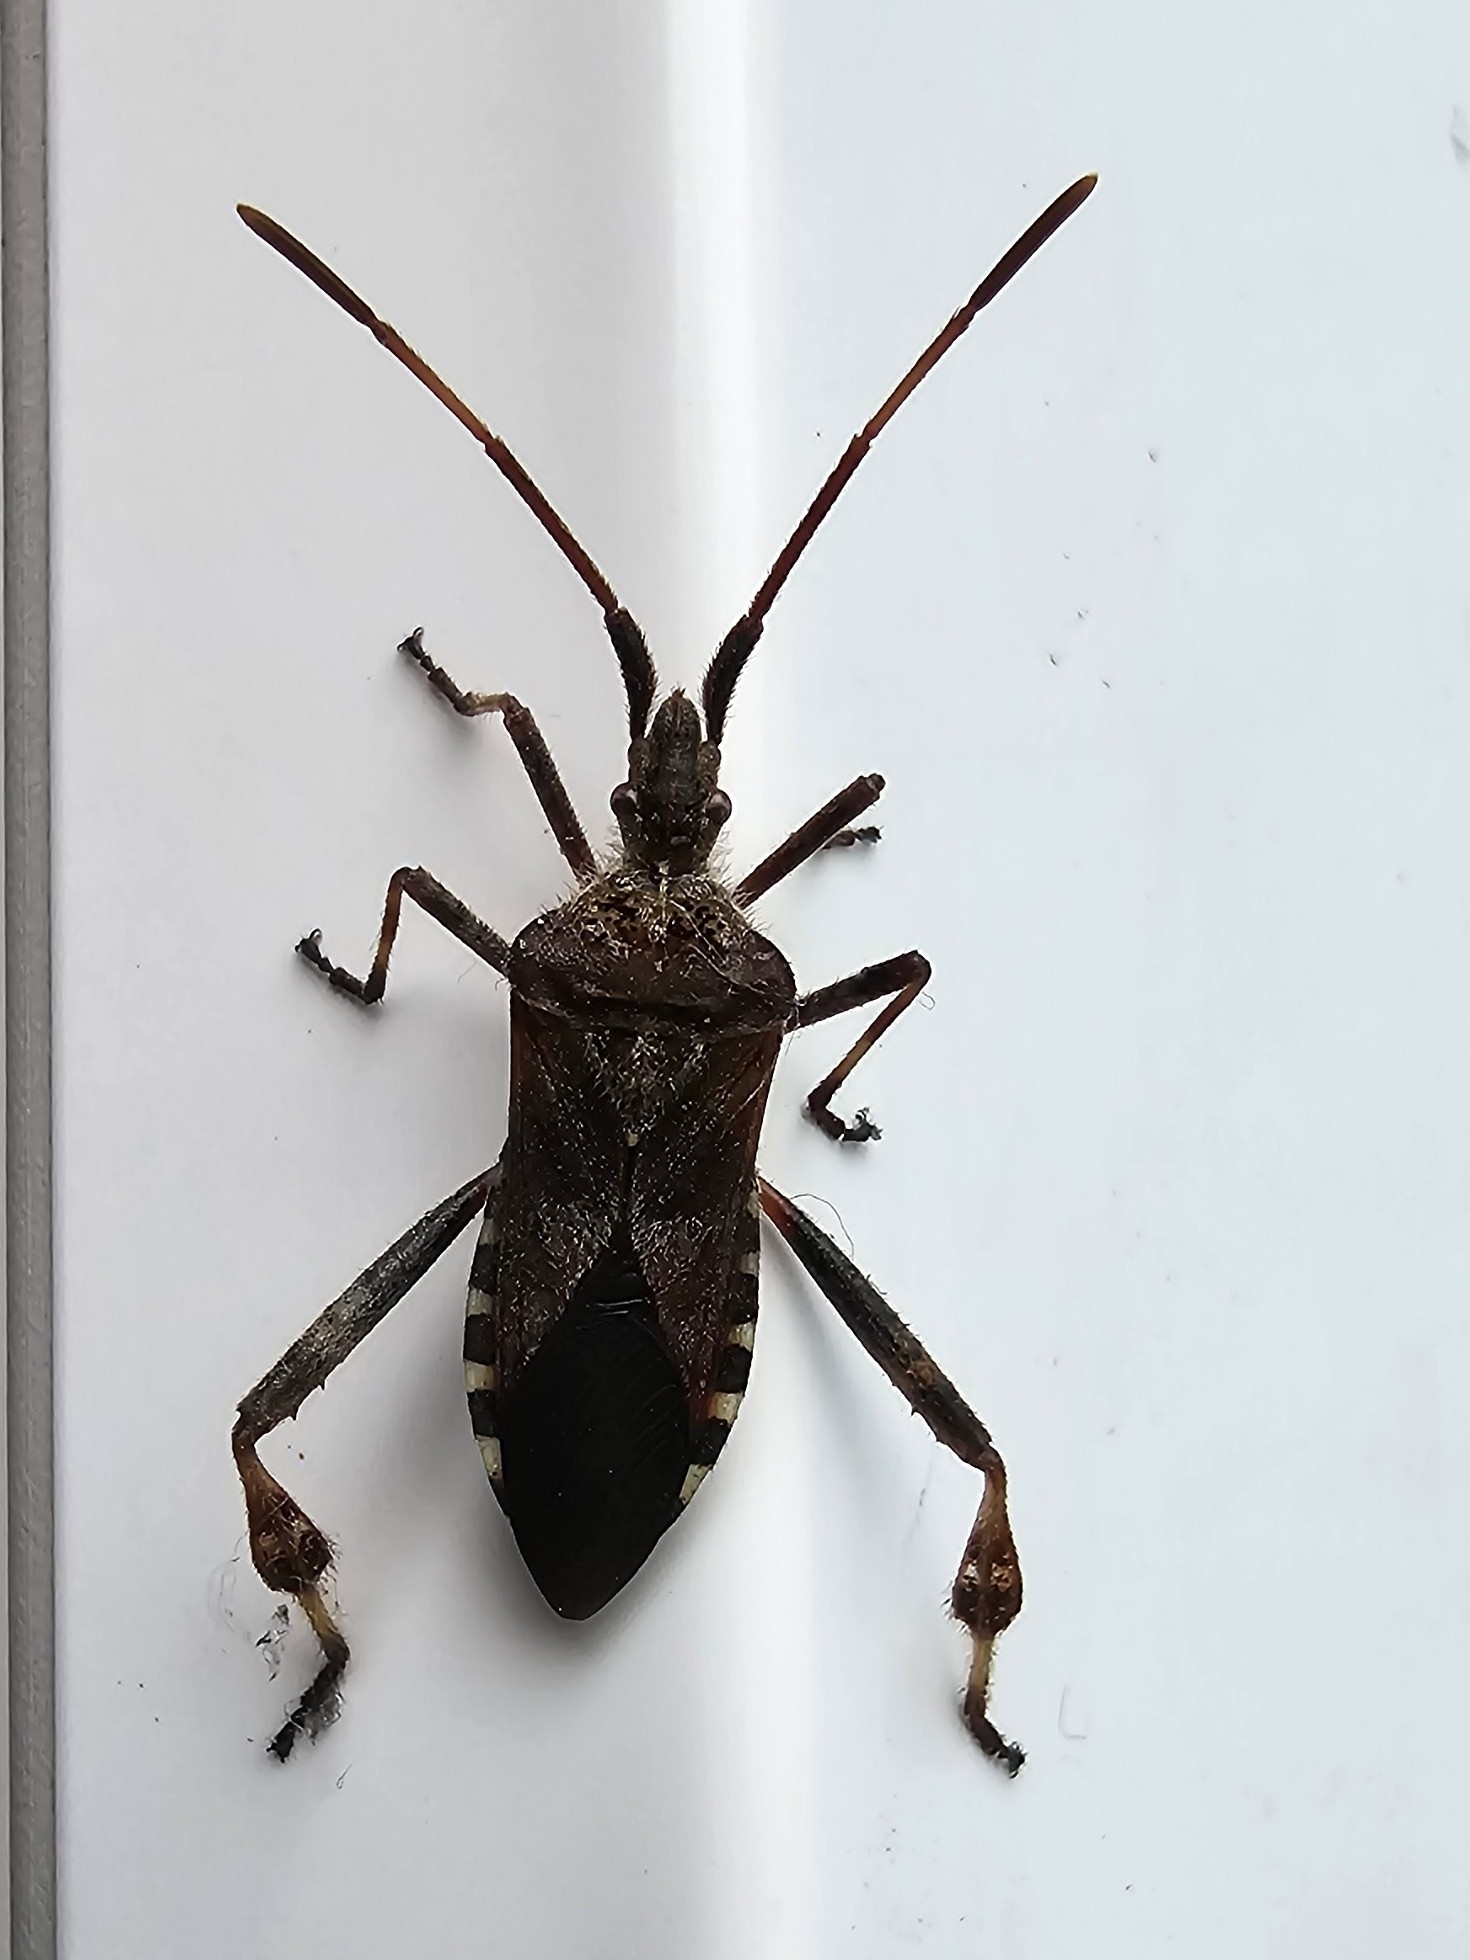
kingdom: Animalia
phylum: Arthropoda
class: Insecta
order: Hemiptera
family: Coreidae
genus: Leptoglossus
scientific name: Leptoglossus occidentalis
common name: Western conifer-seed bug
